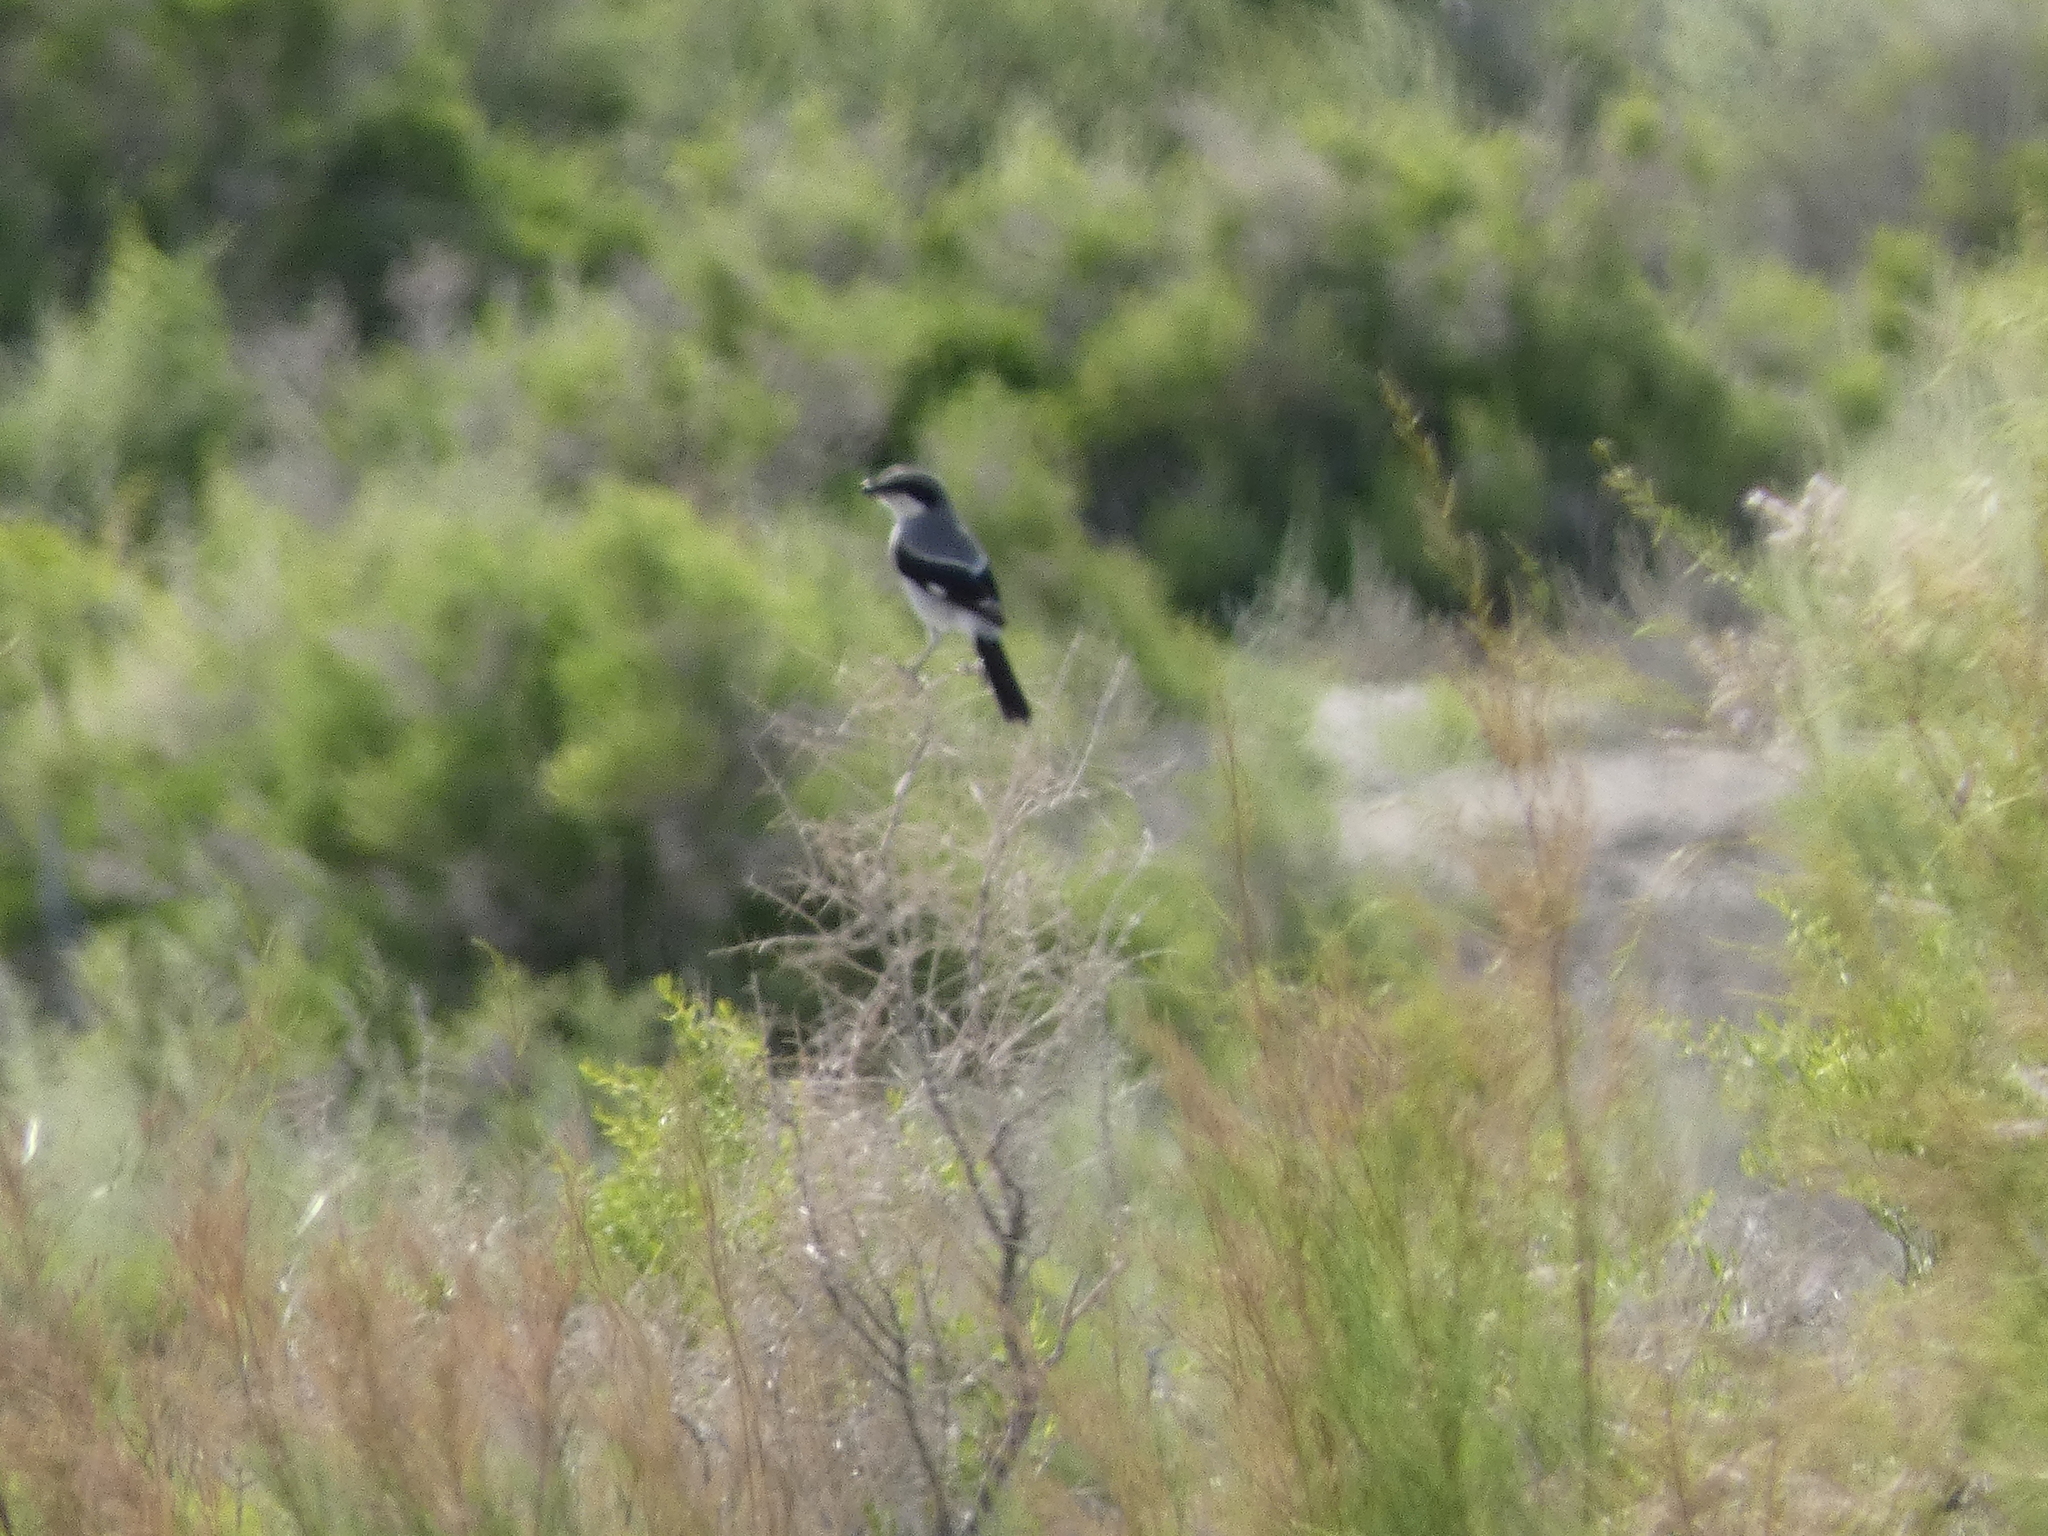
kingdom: Animalia
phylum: Chordata
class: Aves
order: Passeriformes
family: Laniidae
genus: Lanius
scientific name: Lanius ludovicianus
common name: Loggerhead shrike
